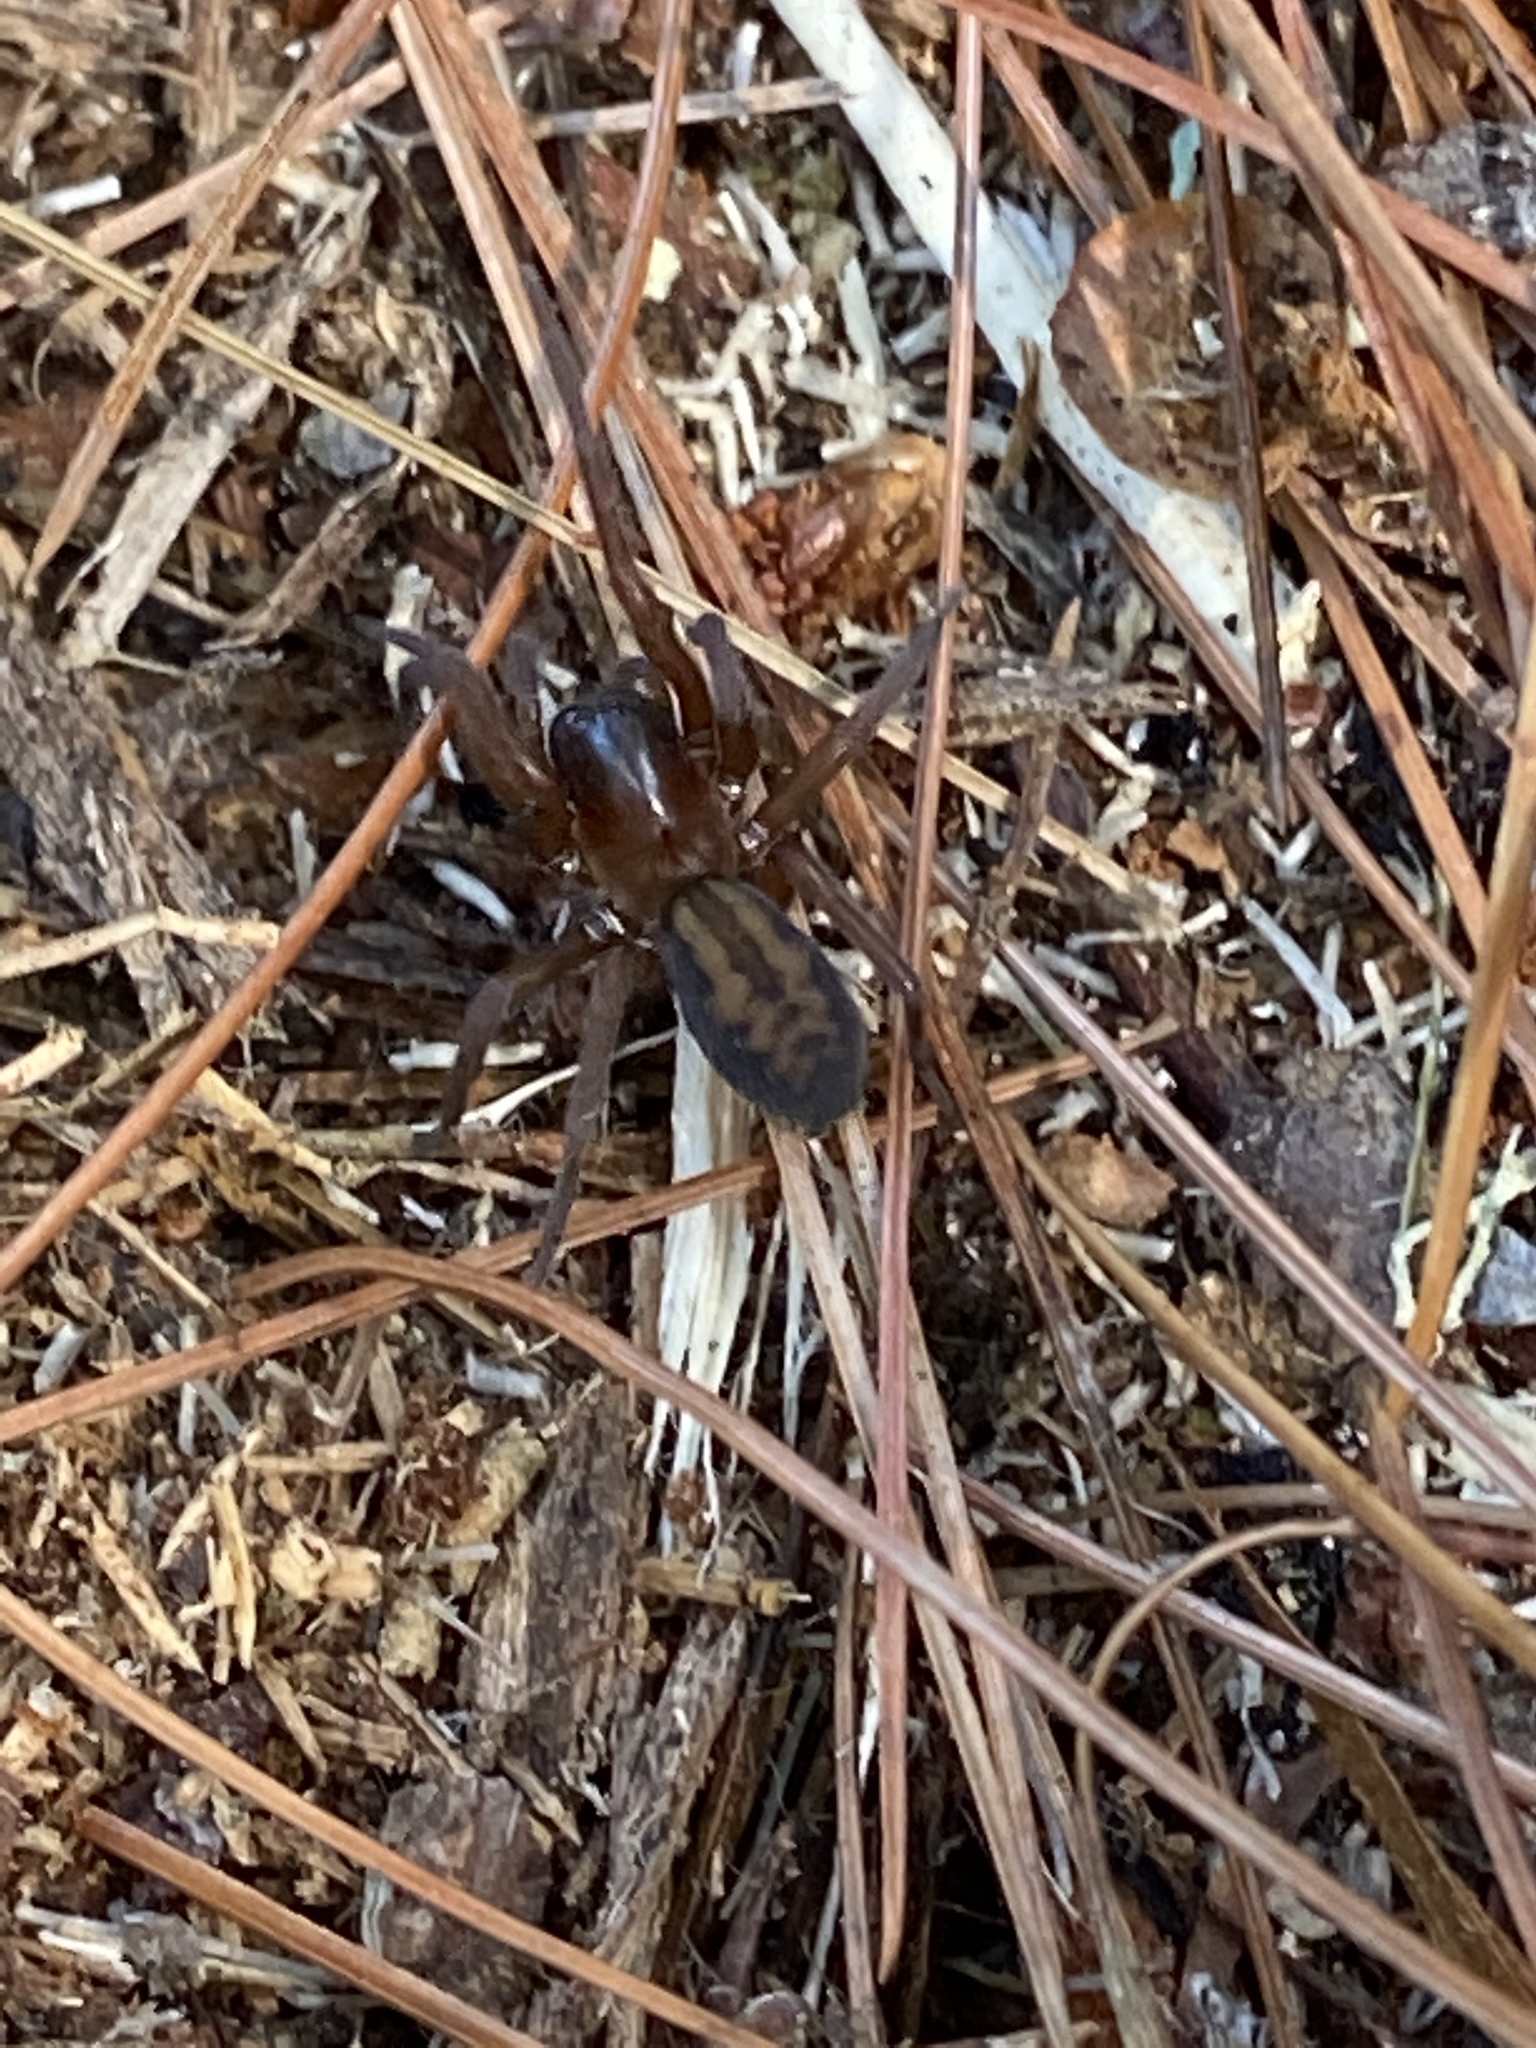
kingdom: Animalia
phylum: Arthropoda
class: Arachnida
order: Araneae
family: Amaurobiidae
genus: Callobius
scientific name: Callobius bennetti
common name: Bennett's laceweaver
